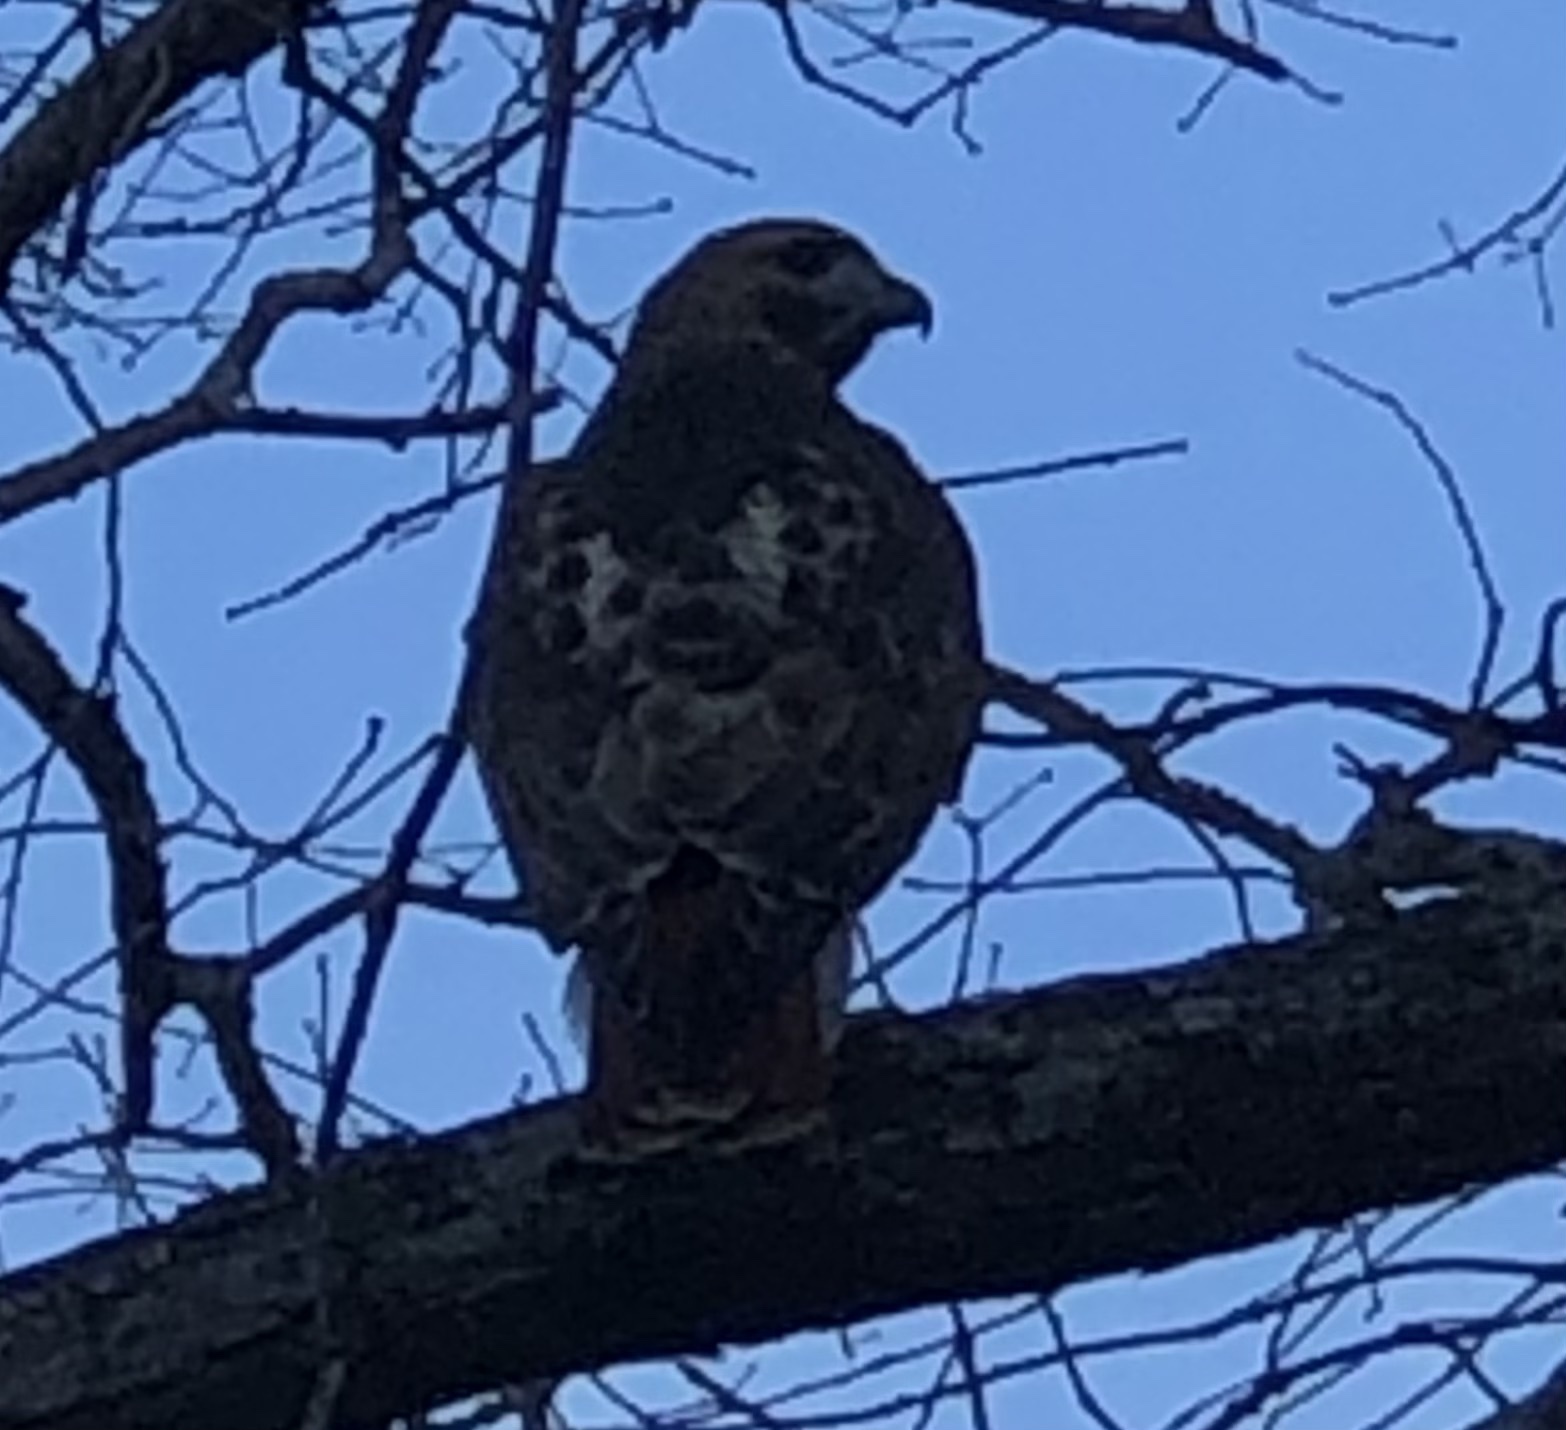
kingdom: Animalia
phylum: Chordata
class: Aves
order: Accipitriformes
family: Accipitridae
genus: Buteo
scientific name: Buteo jamaicensis
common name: Red-tailed hawk
